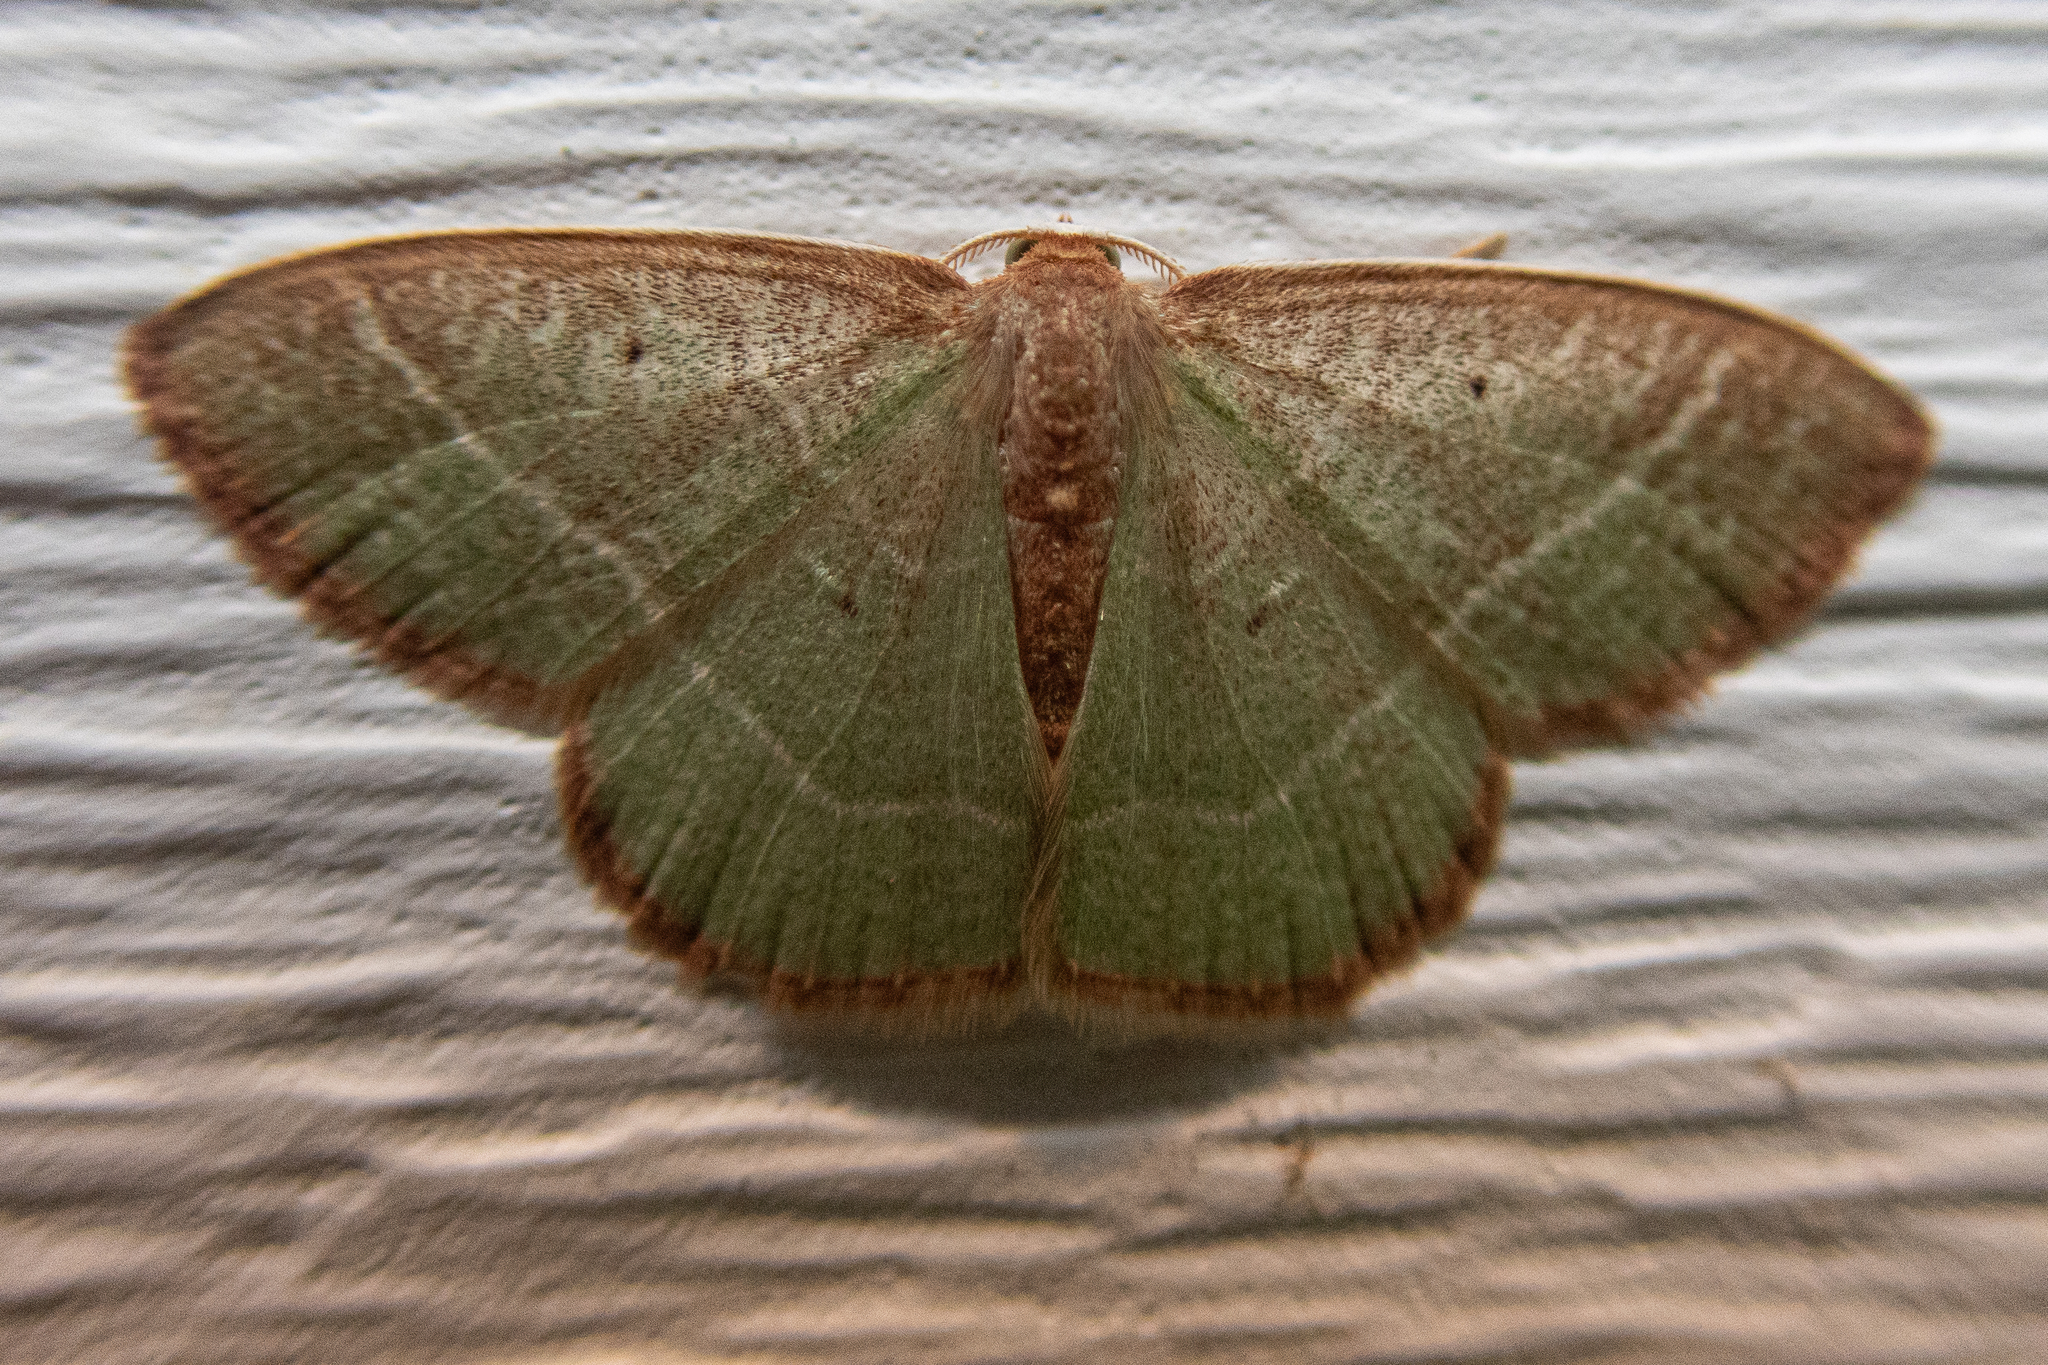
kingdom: Animalia
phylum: Arthropoda
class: Insecta
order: Lepidoptera
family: Geometridae
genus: Nemoria
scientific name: Nemoria bistriaria
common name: Red-fringed emerald
